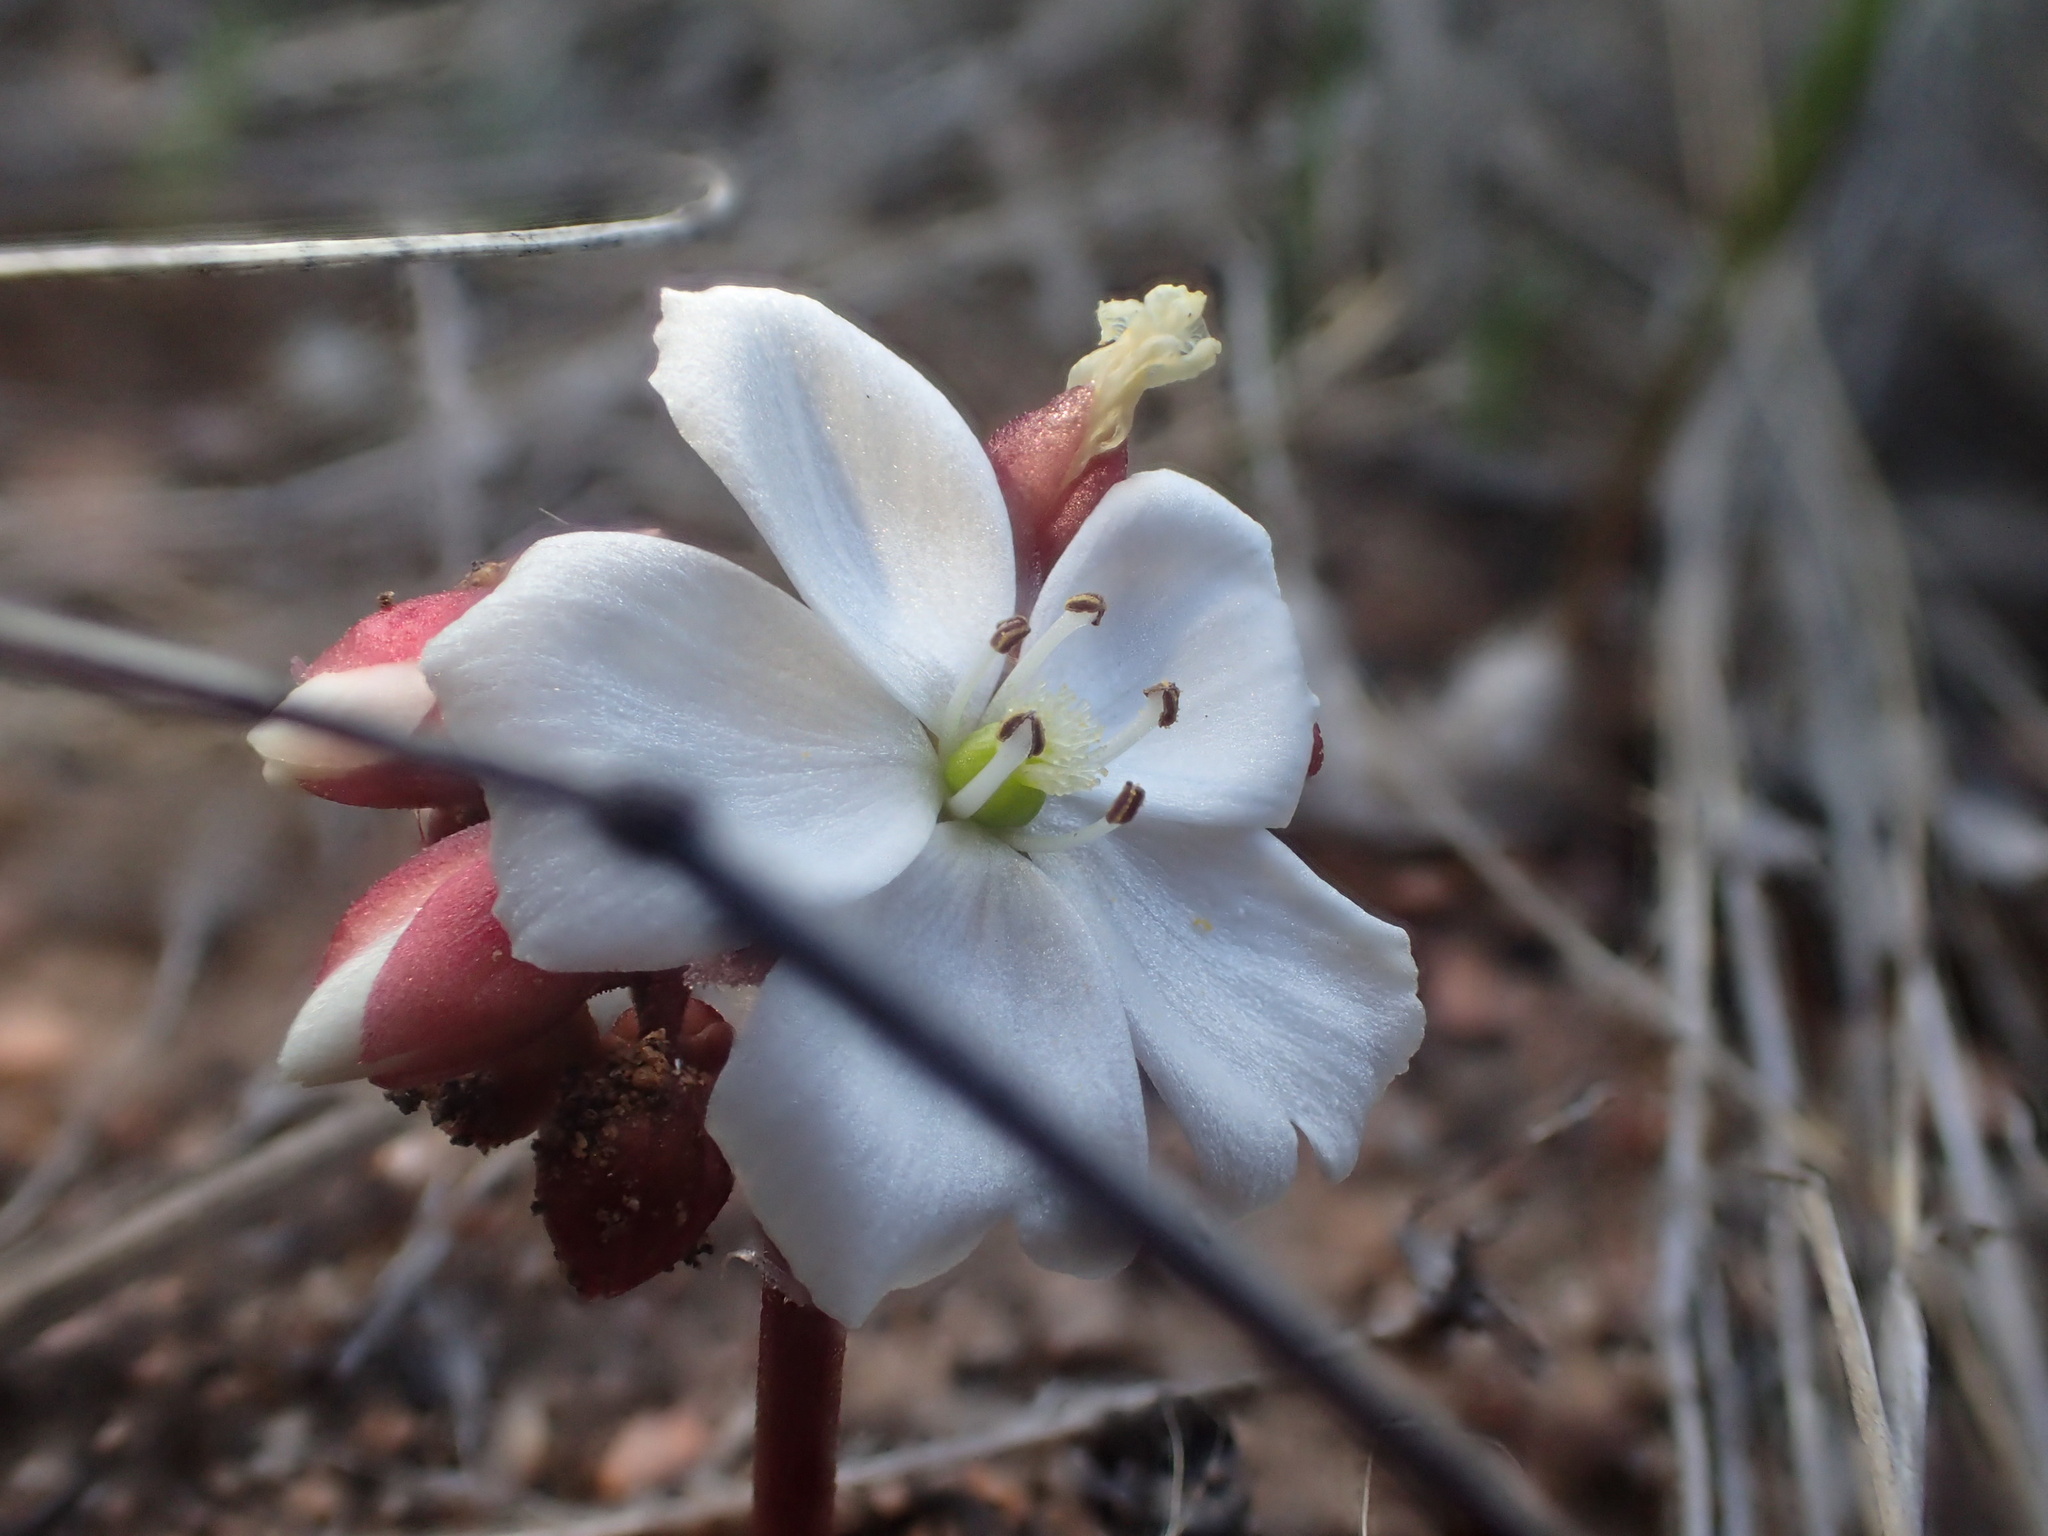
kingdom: Plantae
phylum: Tracheophyta
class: Magnoliopsida
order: Caryophyllales
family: Droseraceae
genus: Drosera
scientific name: Drosera erythrorhiza
